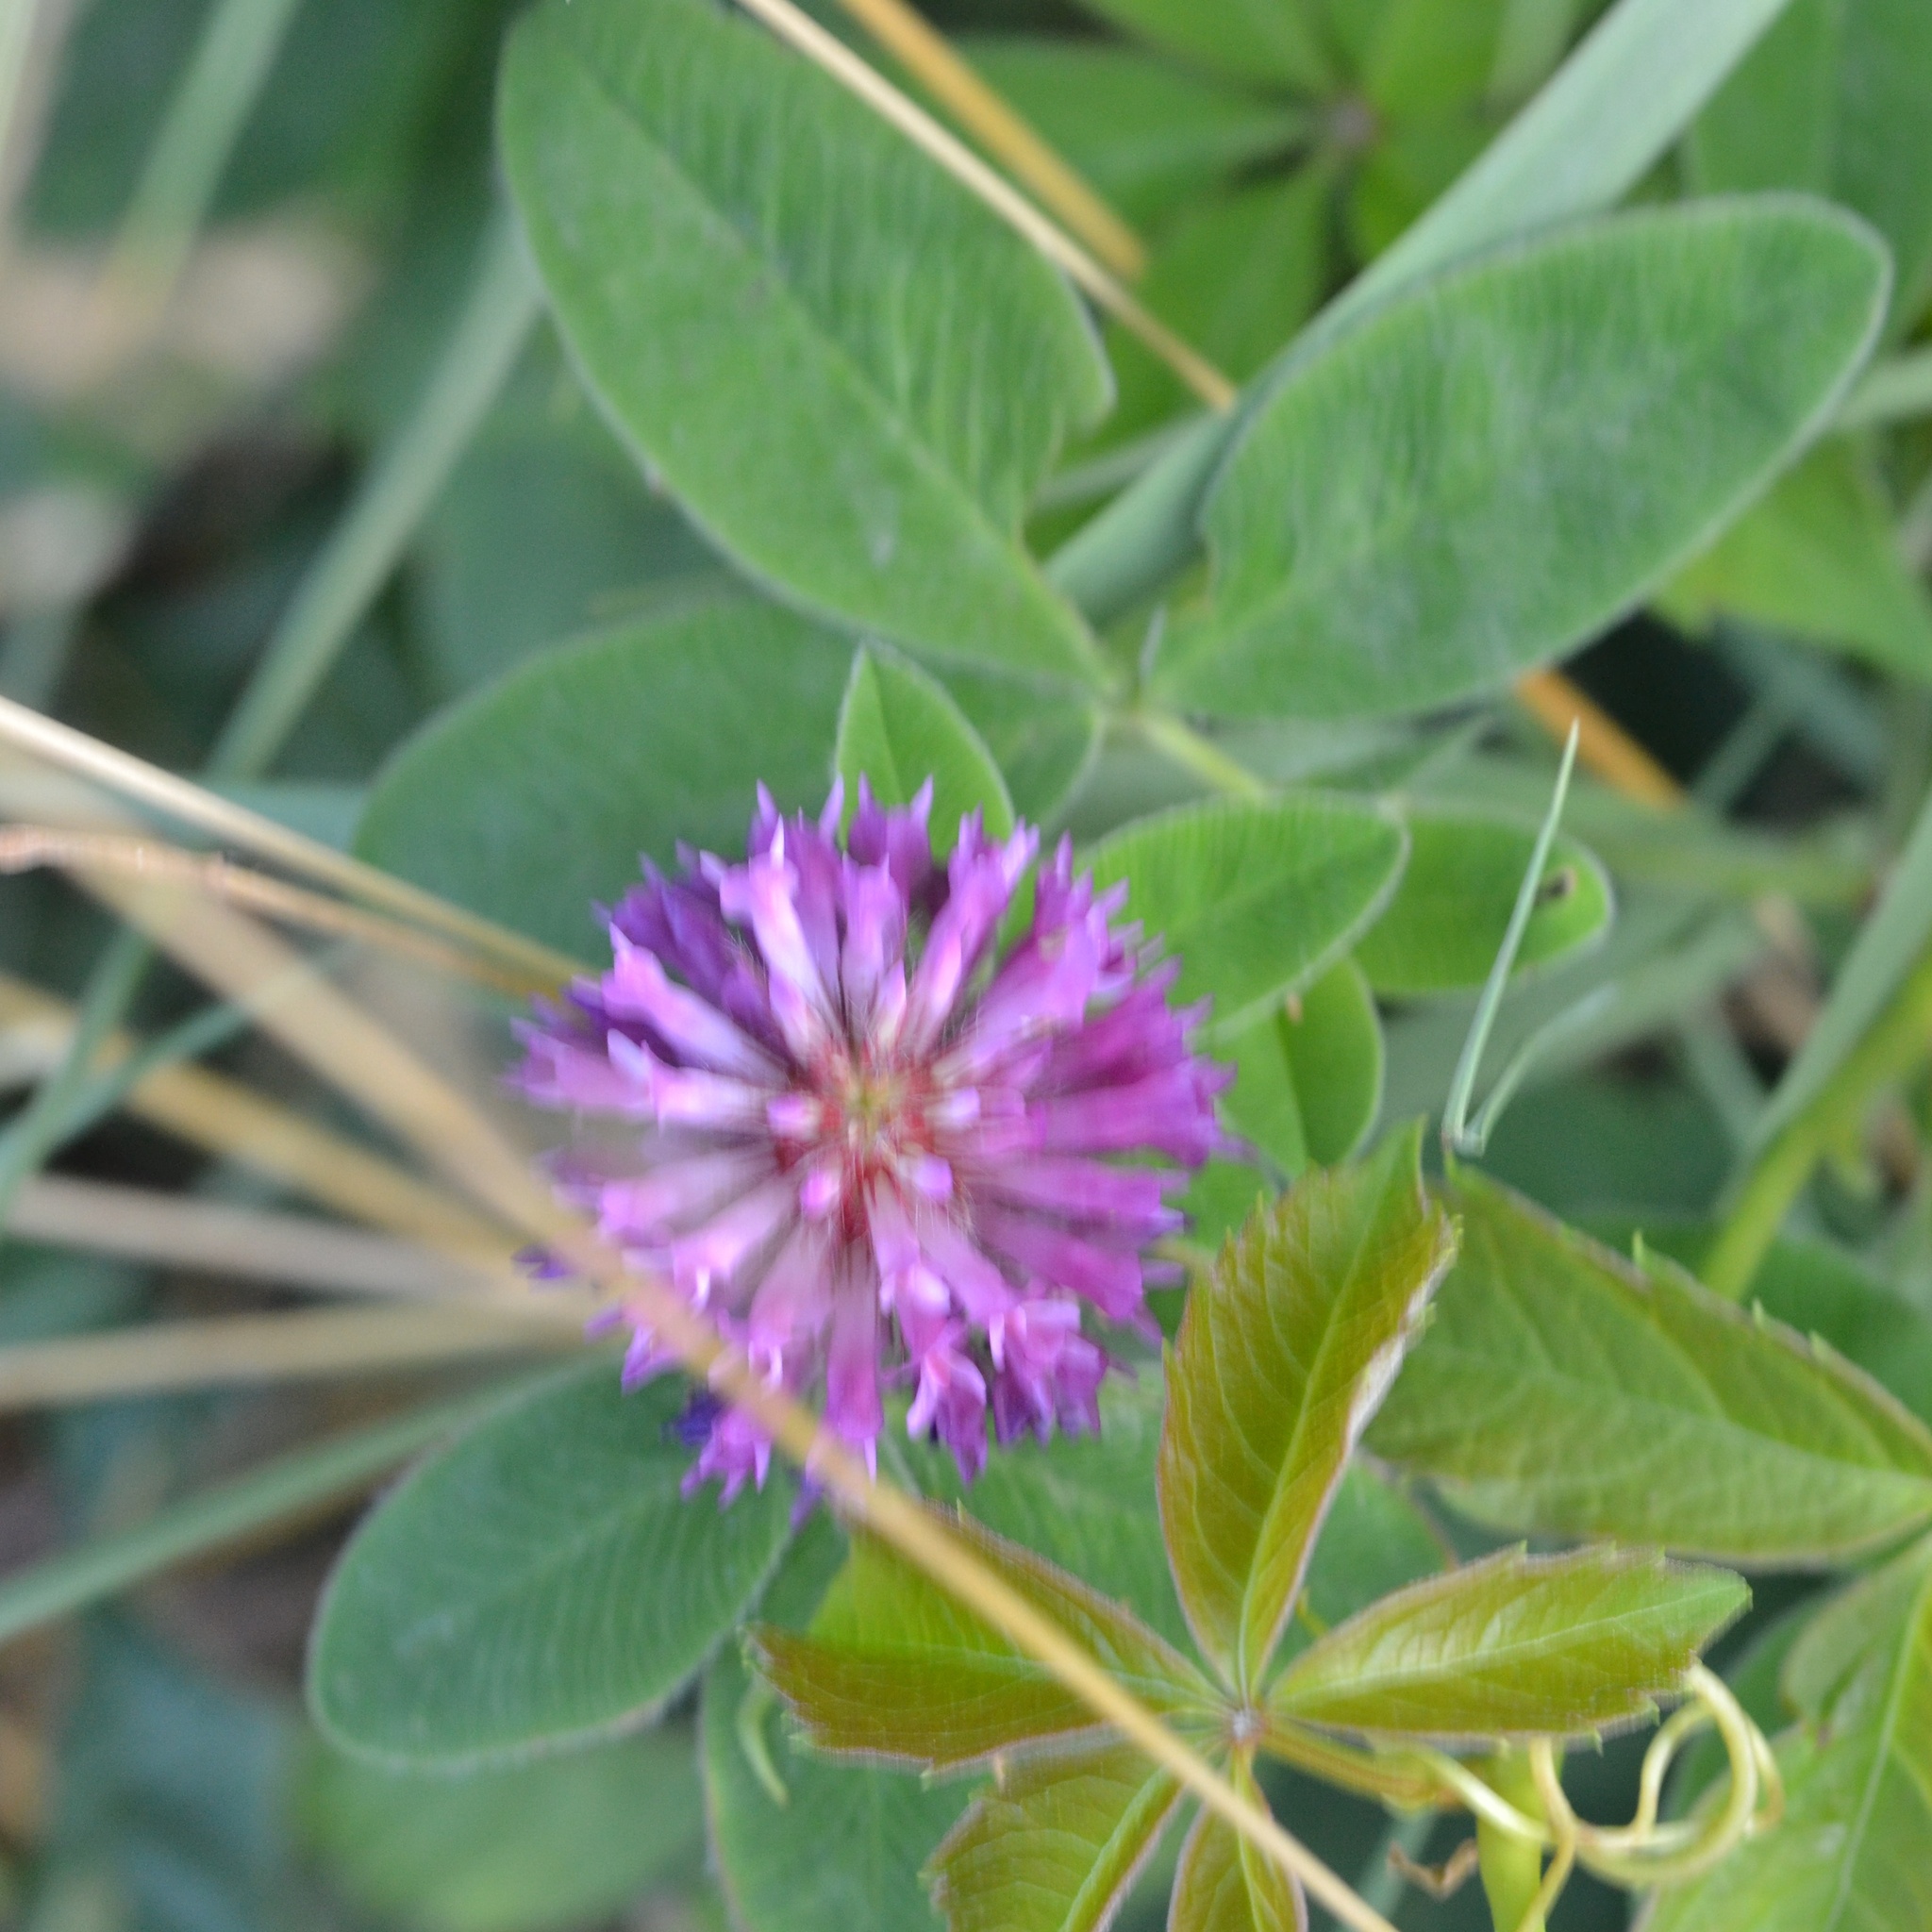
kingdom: Plantae
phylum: Tracheophyta
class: Magnoliopsida
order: Fabales
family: Fabaceae
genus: Trifolium
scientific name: Trifolium medium
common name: Zigzag clover
